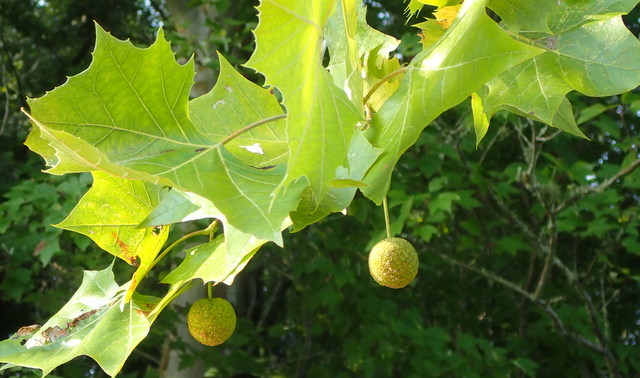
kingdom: Plantae
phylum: Tracheophyta
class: Magnoliopsida
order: Proteales
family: Platanaceae
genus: Platanus
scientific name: Platanus occidentalis
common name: American sycamore
